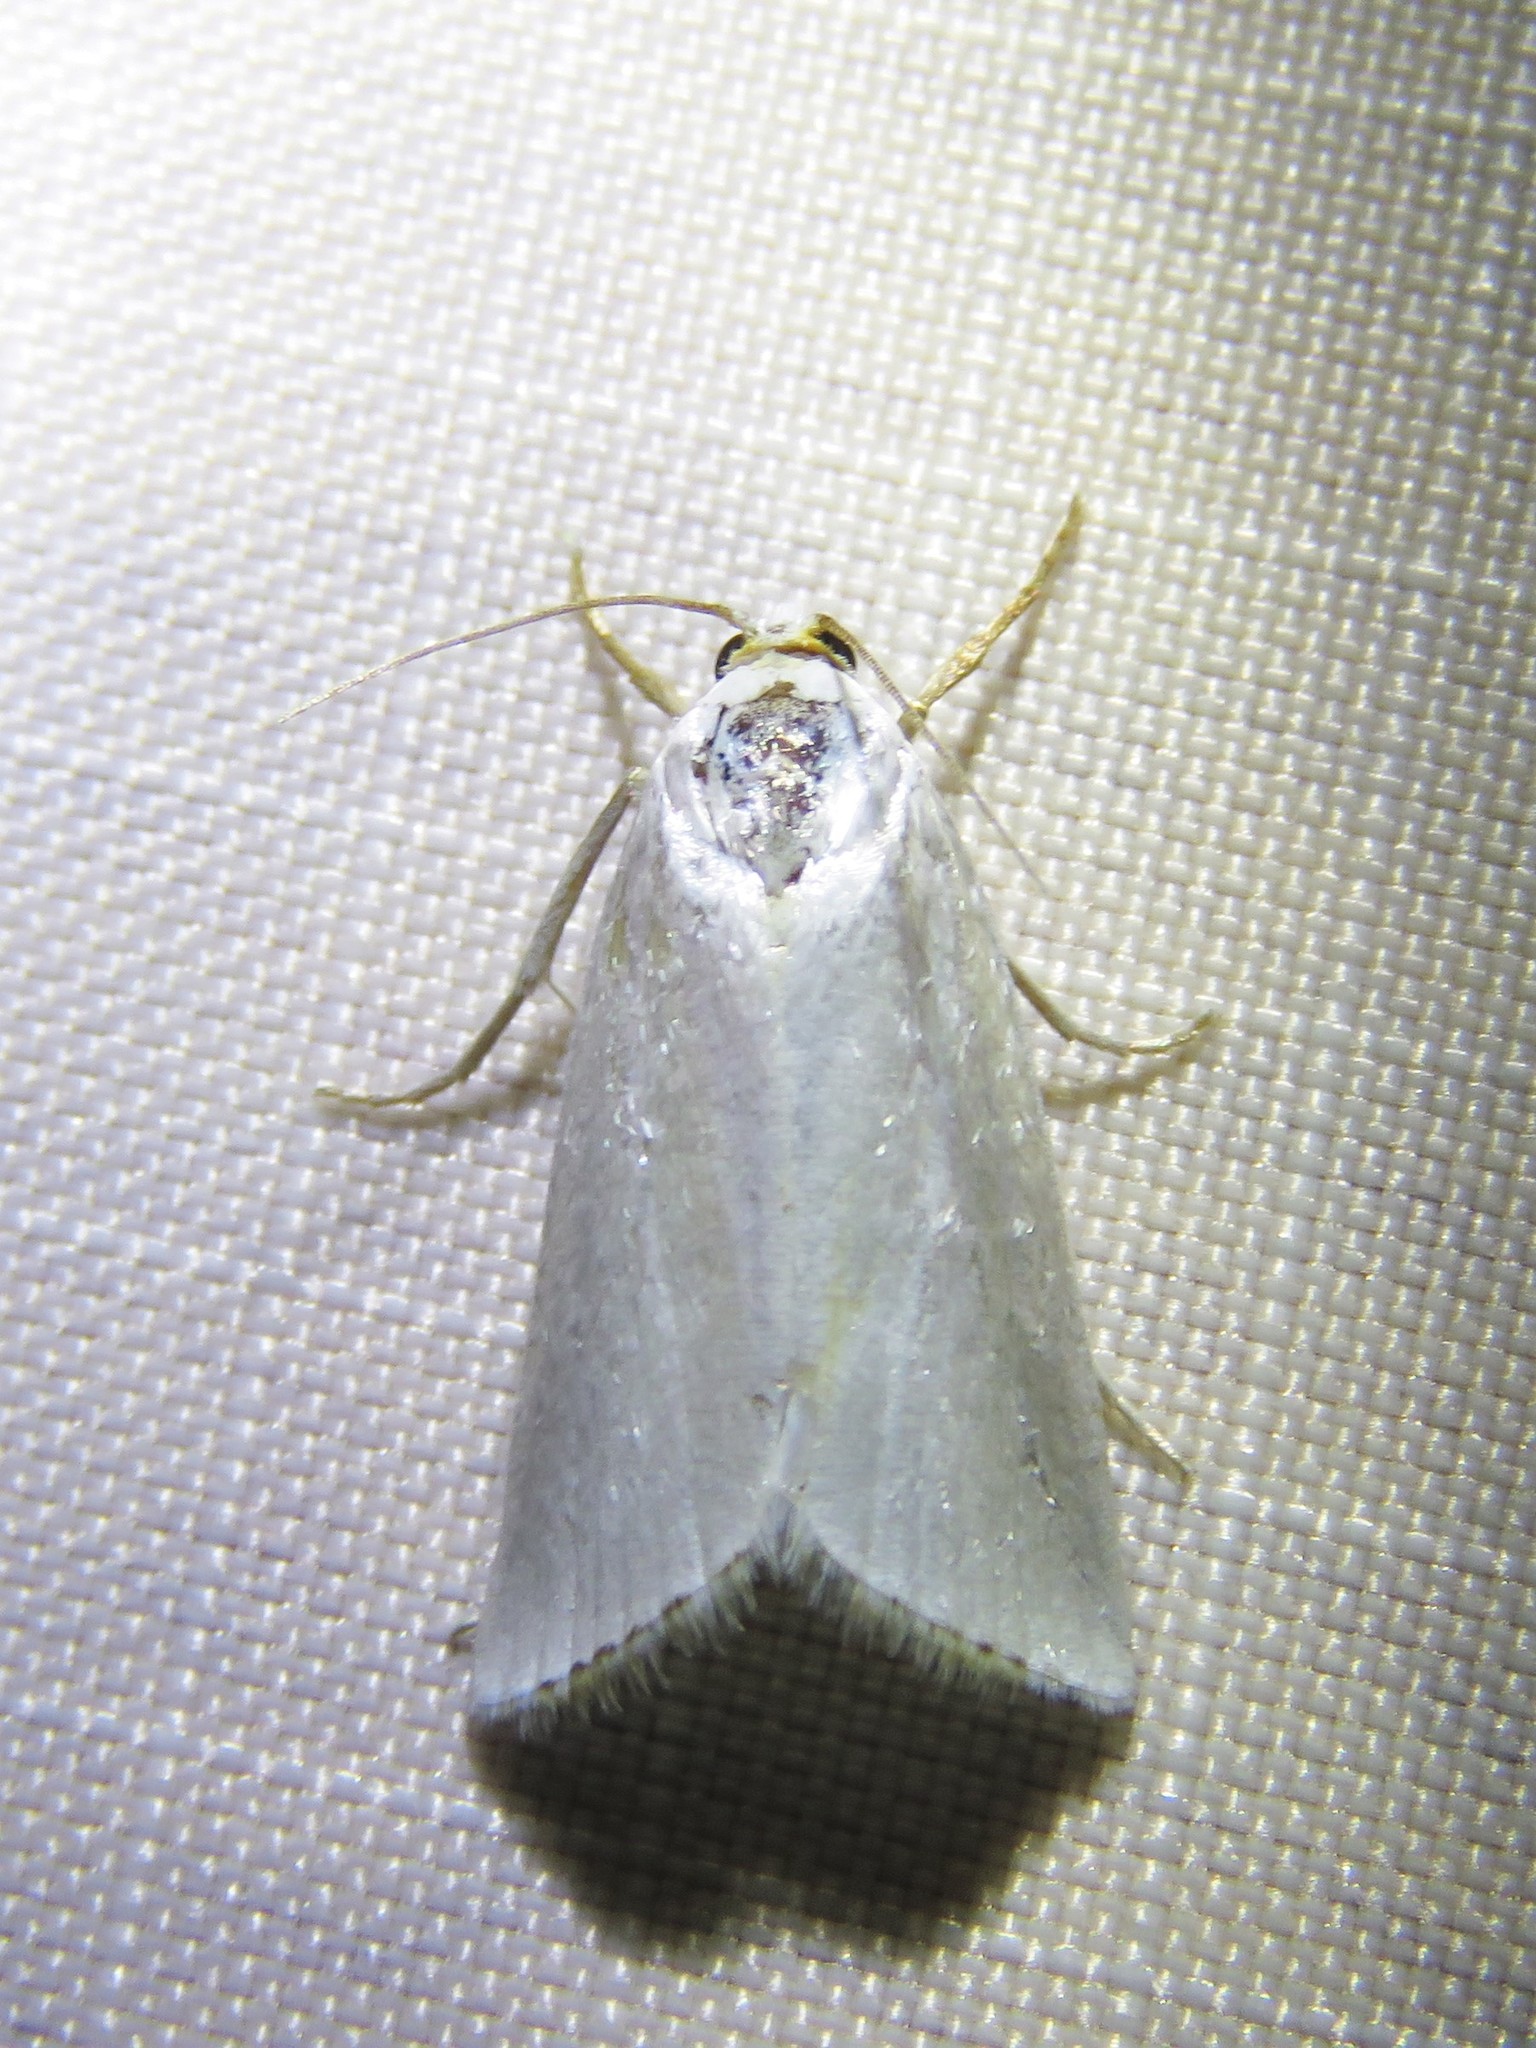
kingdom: Animalia
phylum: Arthropoda
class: Insecta
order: Lepidoptera
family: Crambidae
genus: Argyria
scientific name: Argyria nivalis
